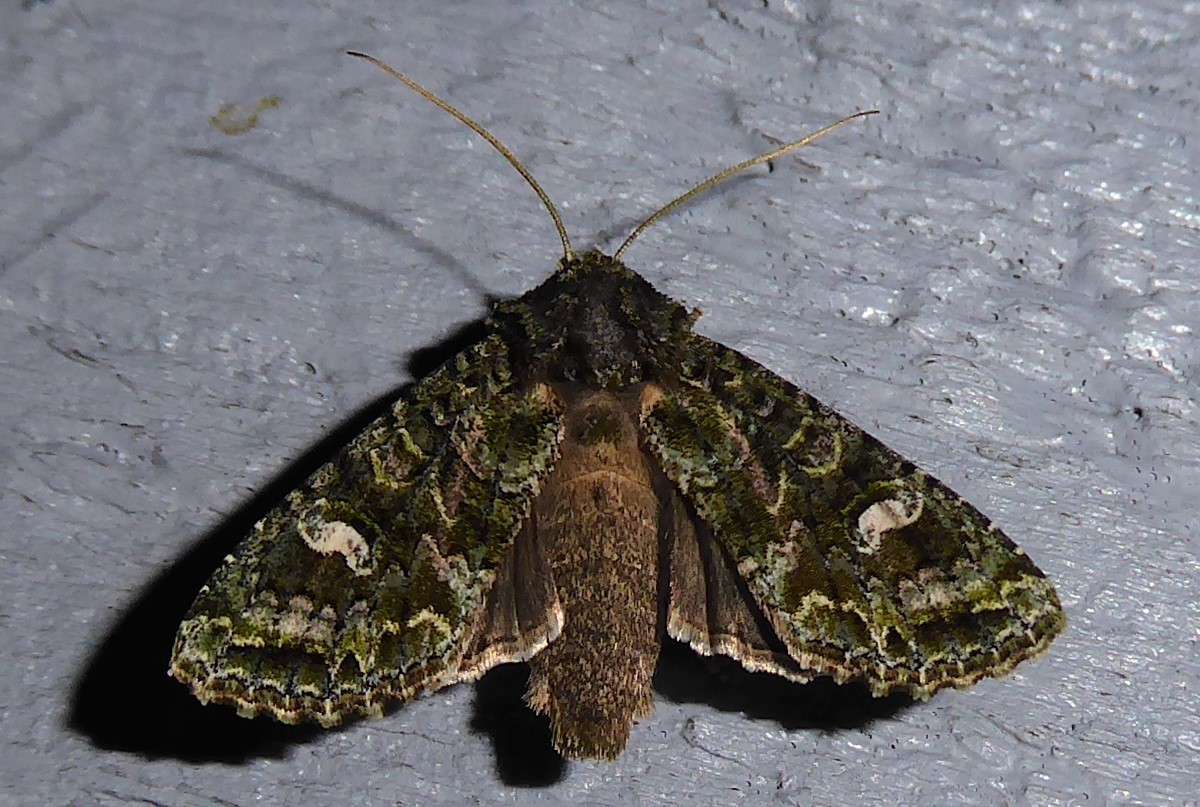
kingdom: Animalia
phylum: Arthropoda
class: Insecta
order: Lepidoptera
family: Noctuidae
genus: Ichneutica
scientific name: Ichneutica
